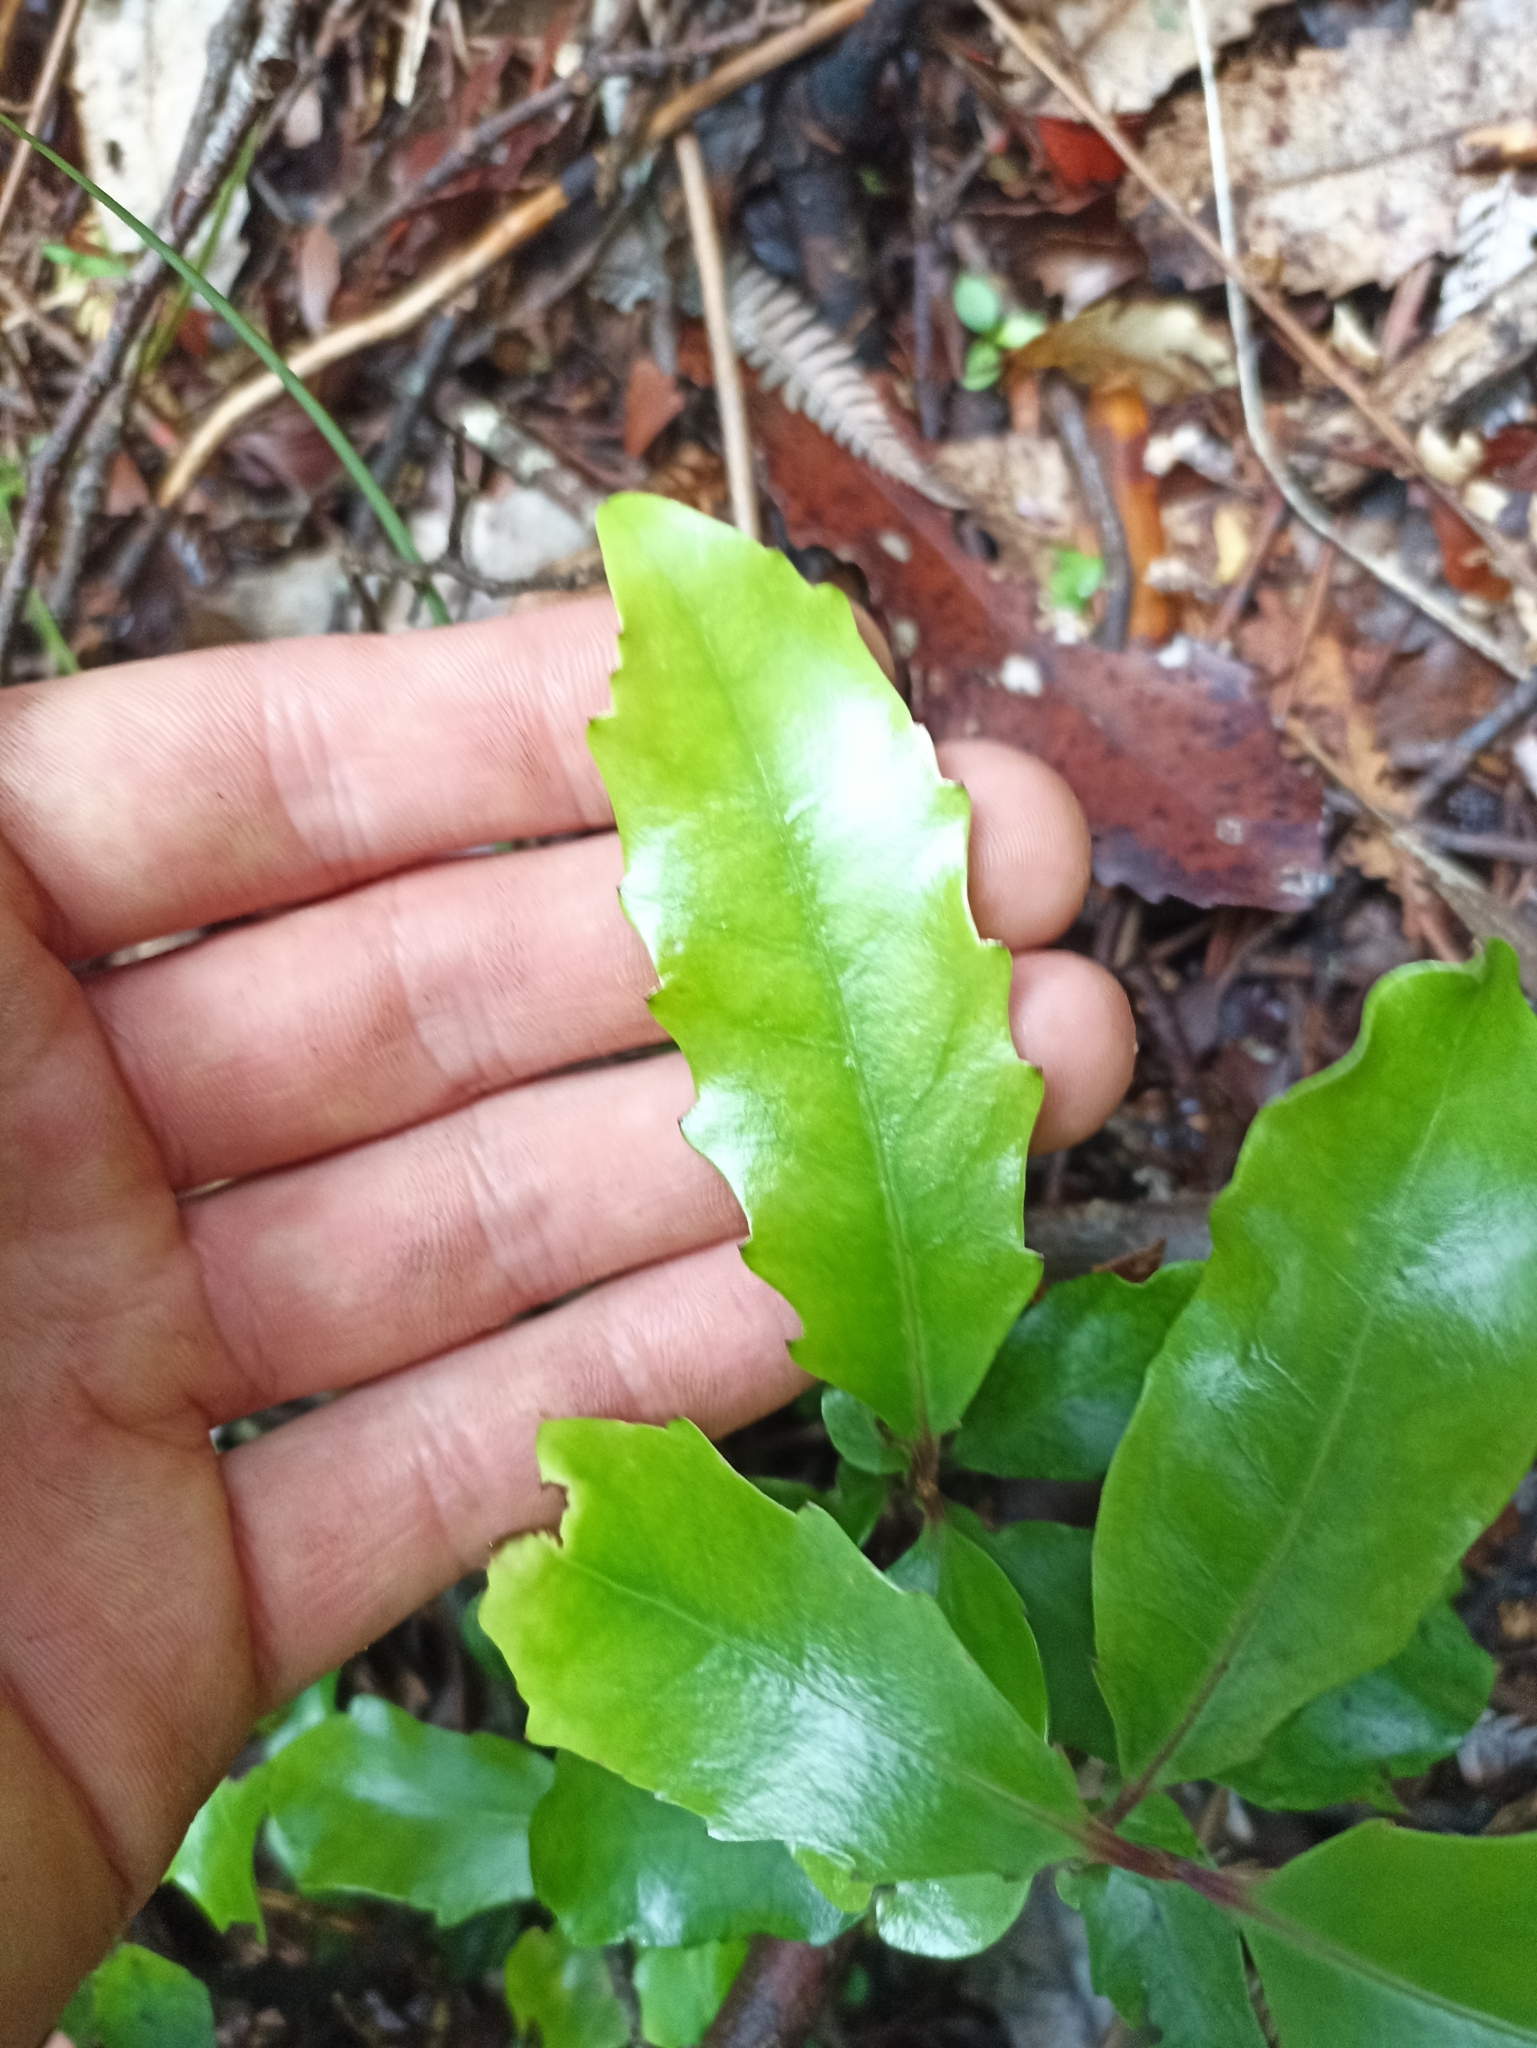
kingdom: Plantae
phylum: Tracheophyta
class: Magnoliopsida
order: Asterales
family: Alseuosmiaceae
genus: Alseuosmia
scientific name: Alseuosmia quercifolia
